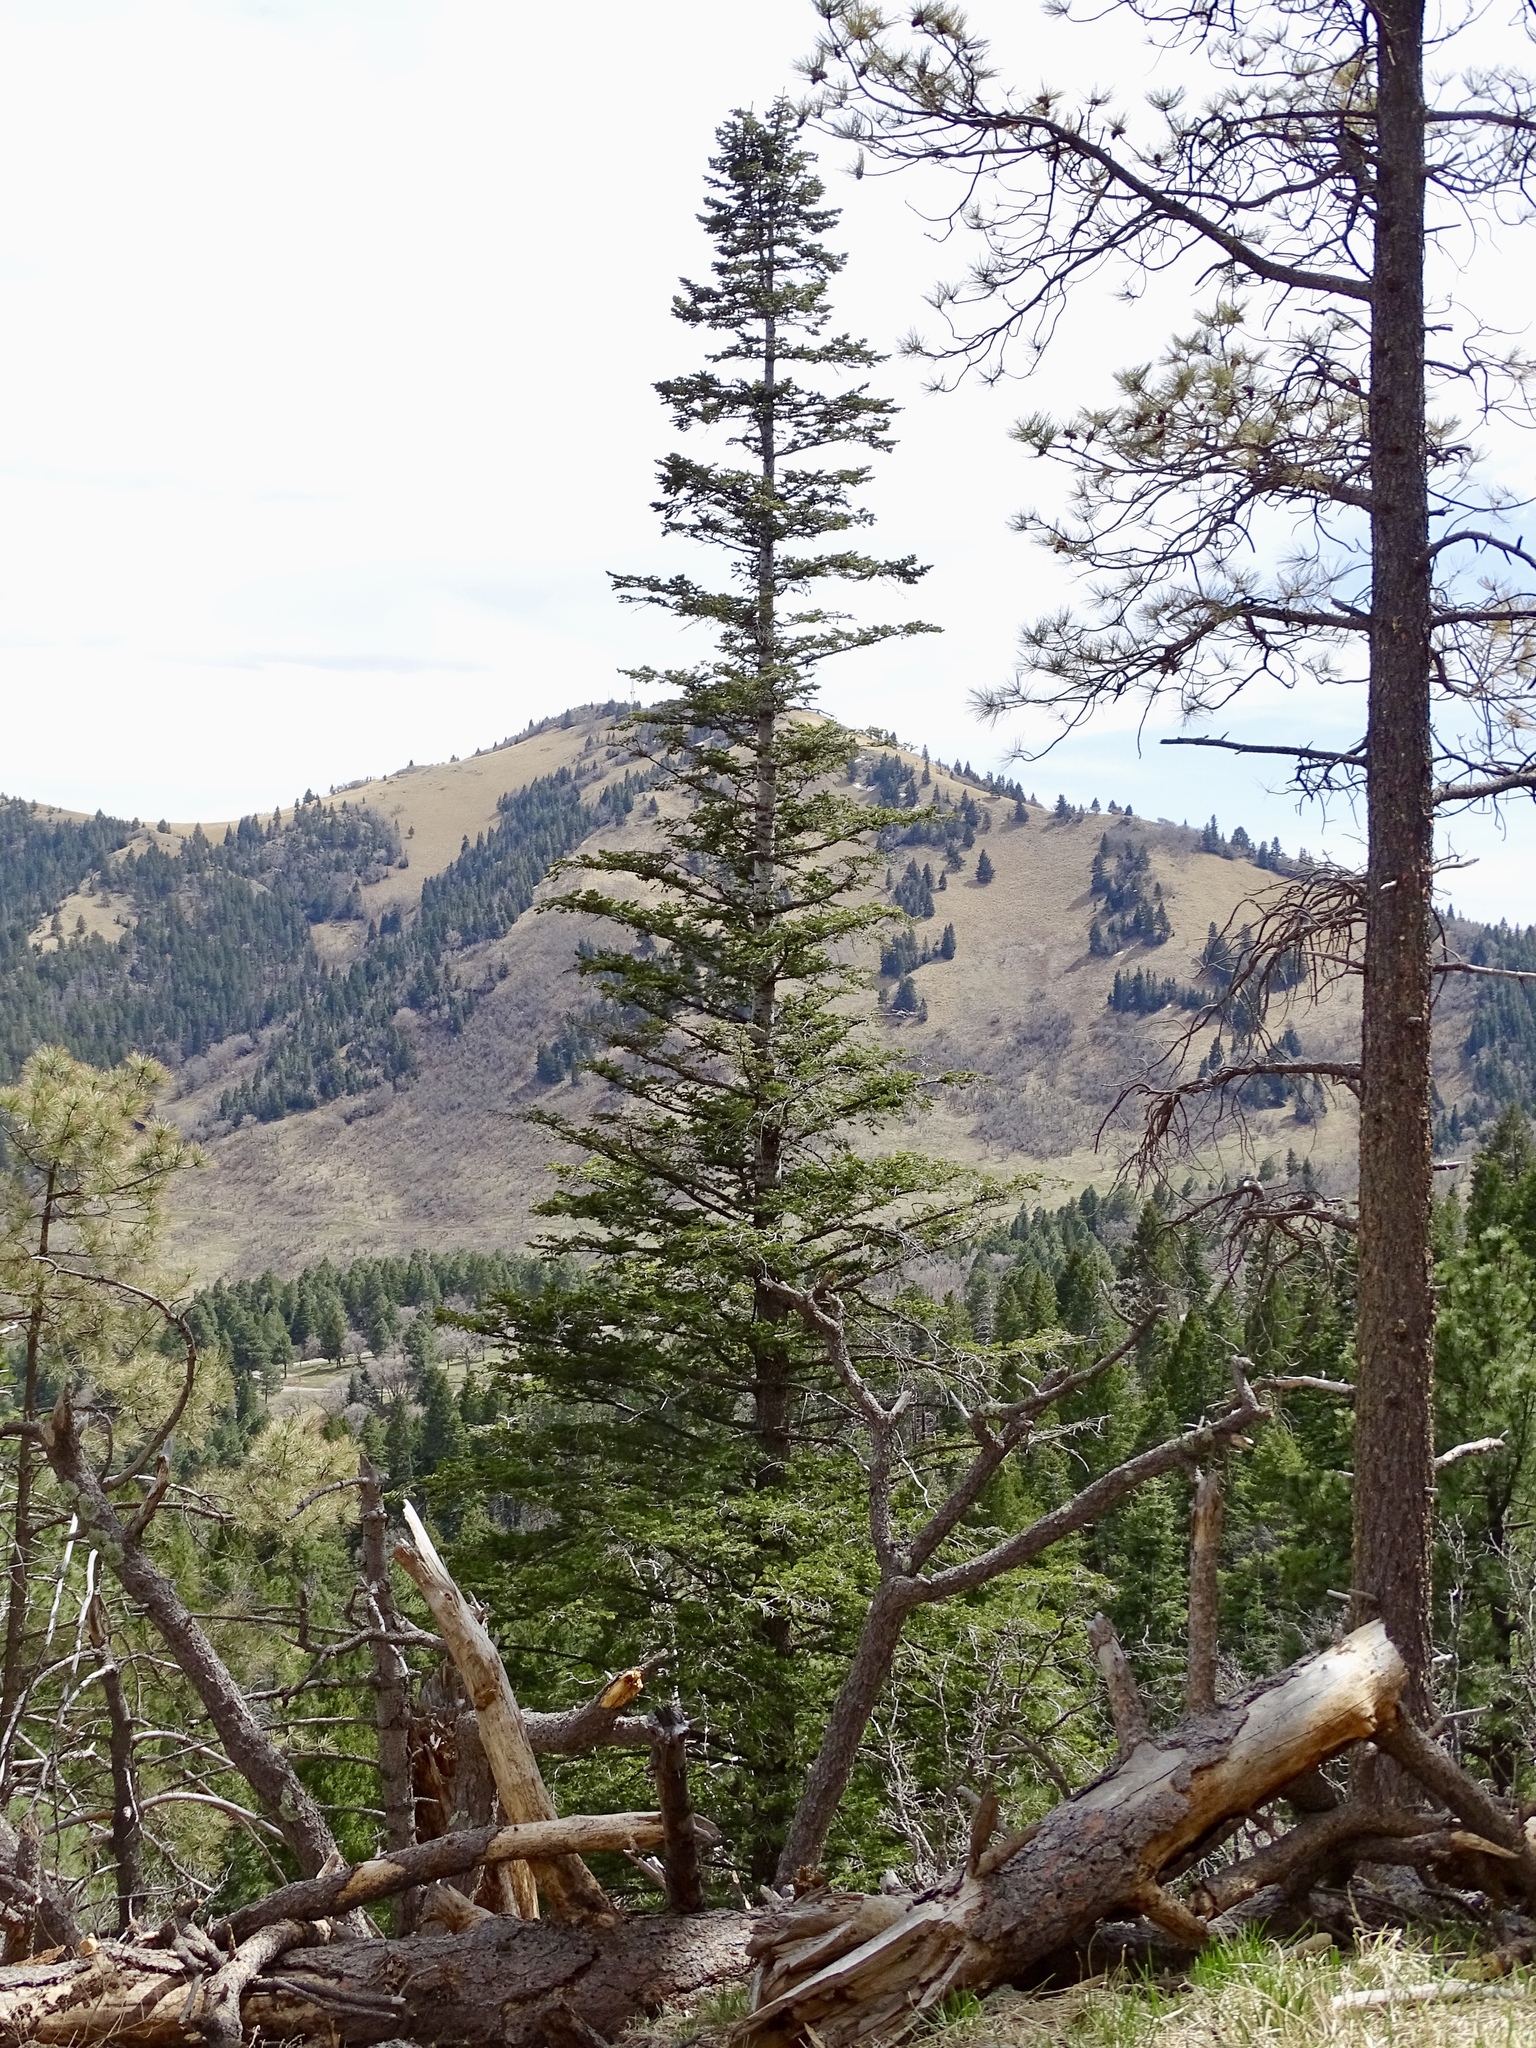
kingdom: Plantae
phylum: Tracheophyta
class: Pinopsida
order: Pinales
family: Pinaceae
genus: Abies
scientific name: Abies concolor
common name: Colorado fir
